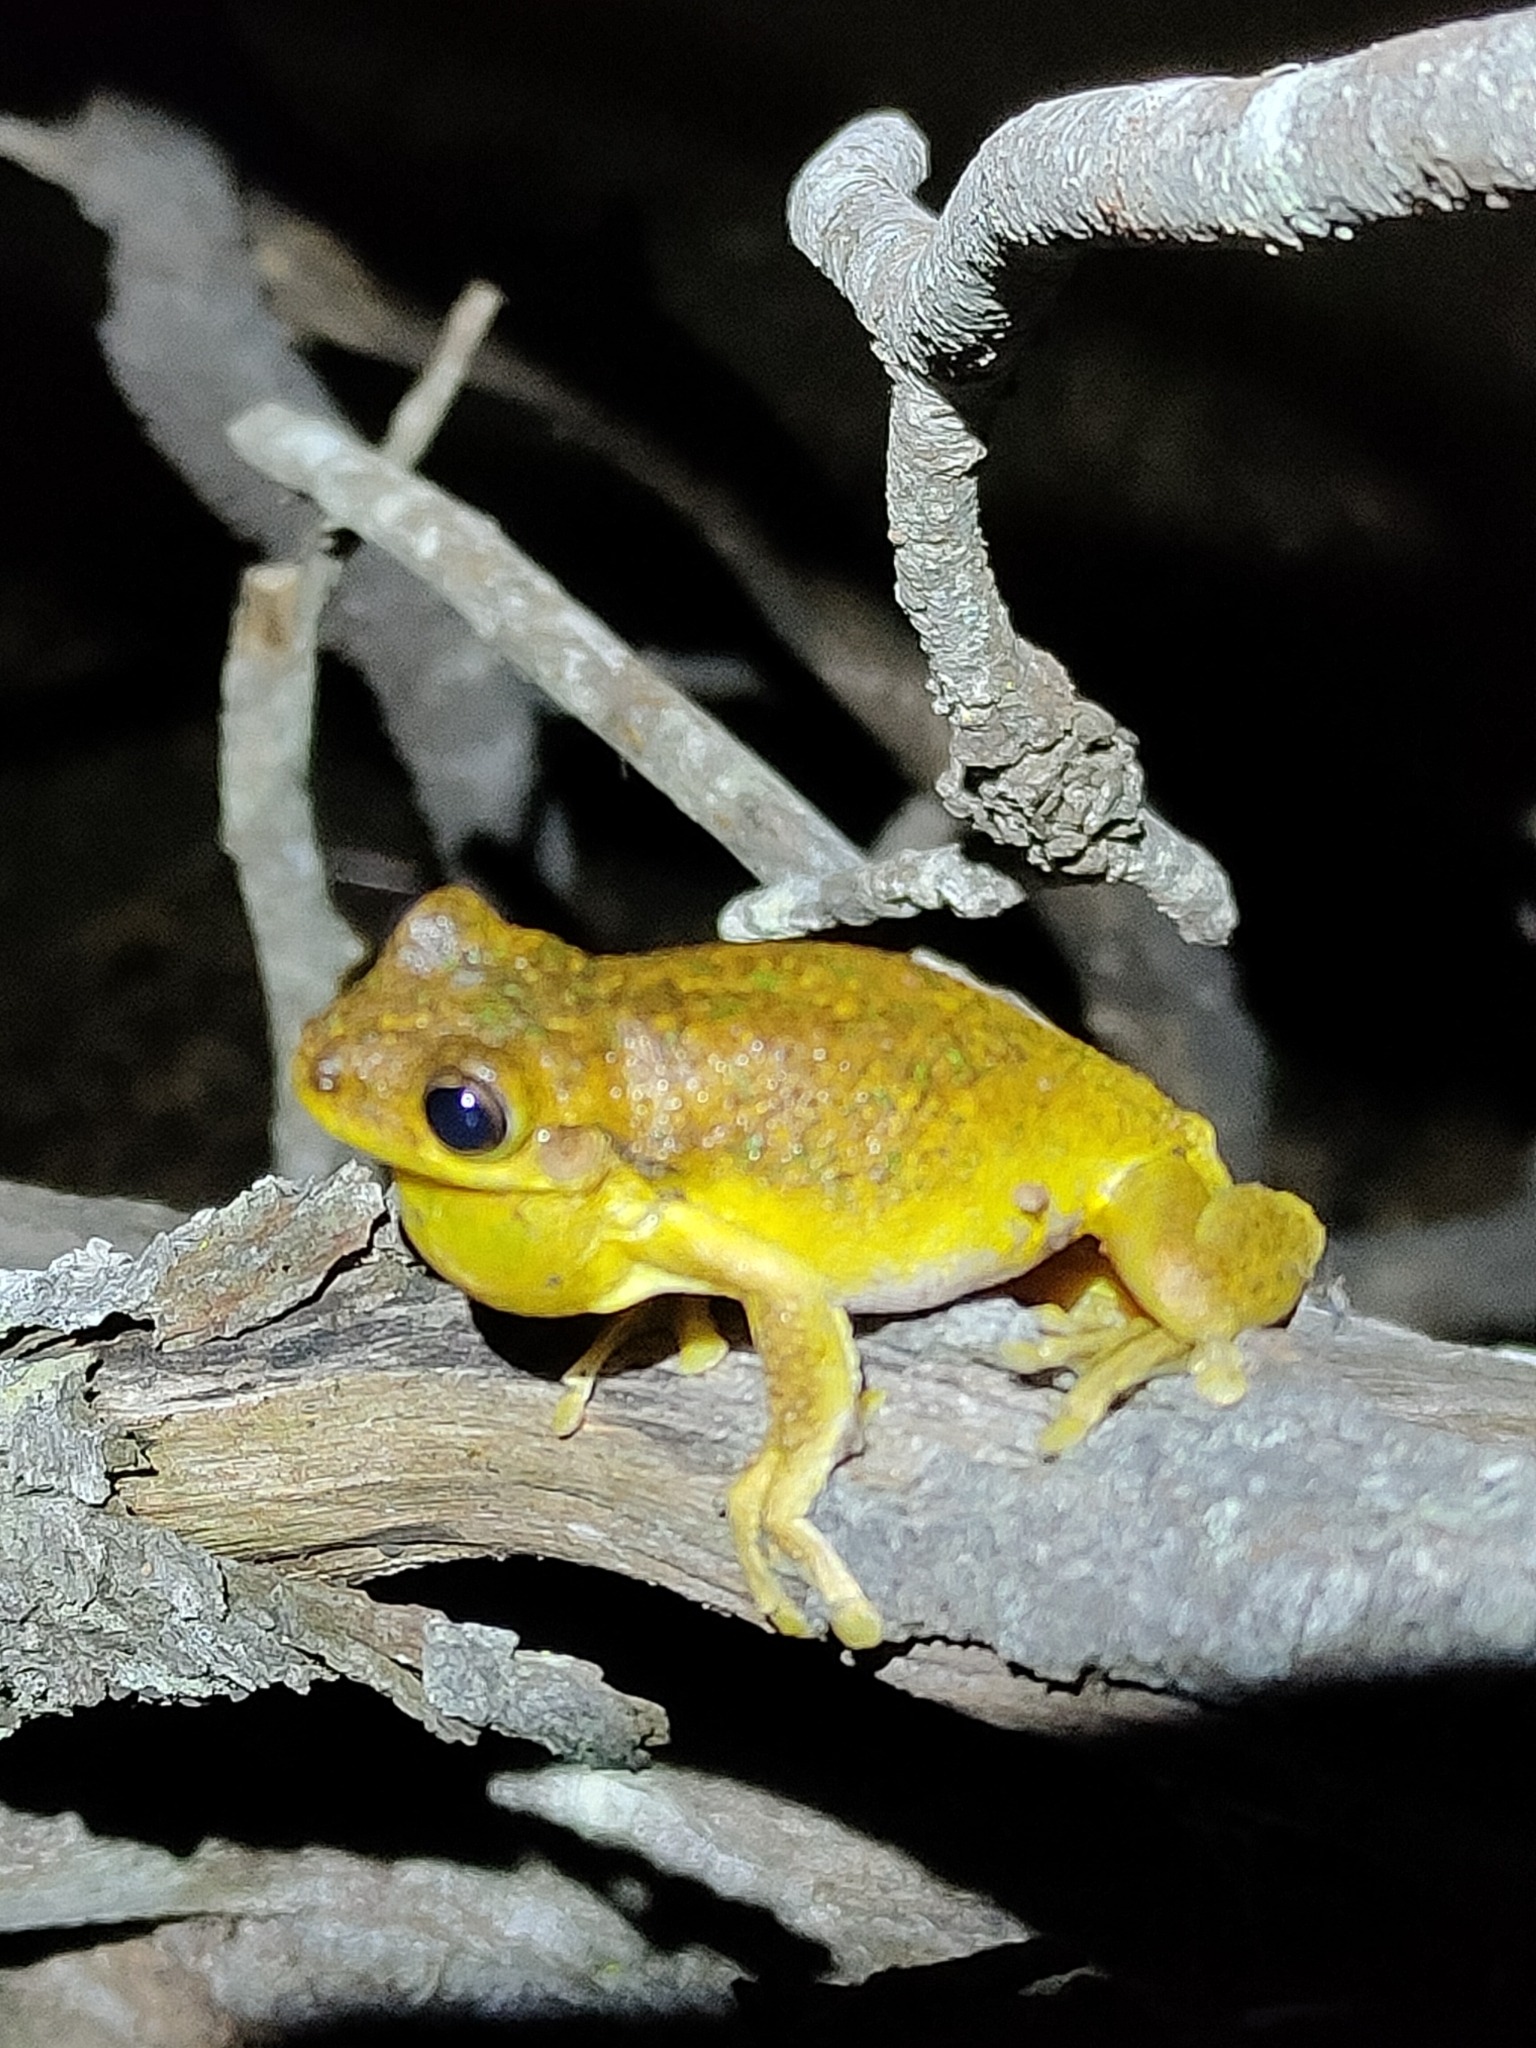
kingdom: Animalia
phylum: Chordata
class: Amphibia
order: Anura
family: Pelodryadidae
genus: Litoria
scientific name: Litoria tyleri
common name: Laughing tree frog
